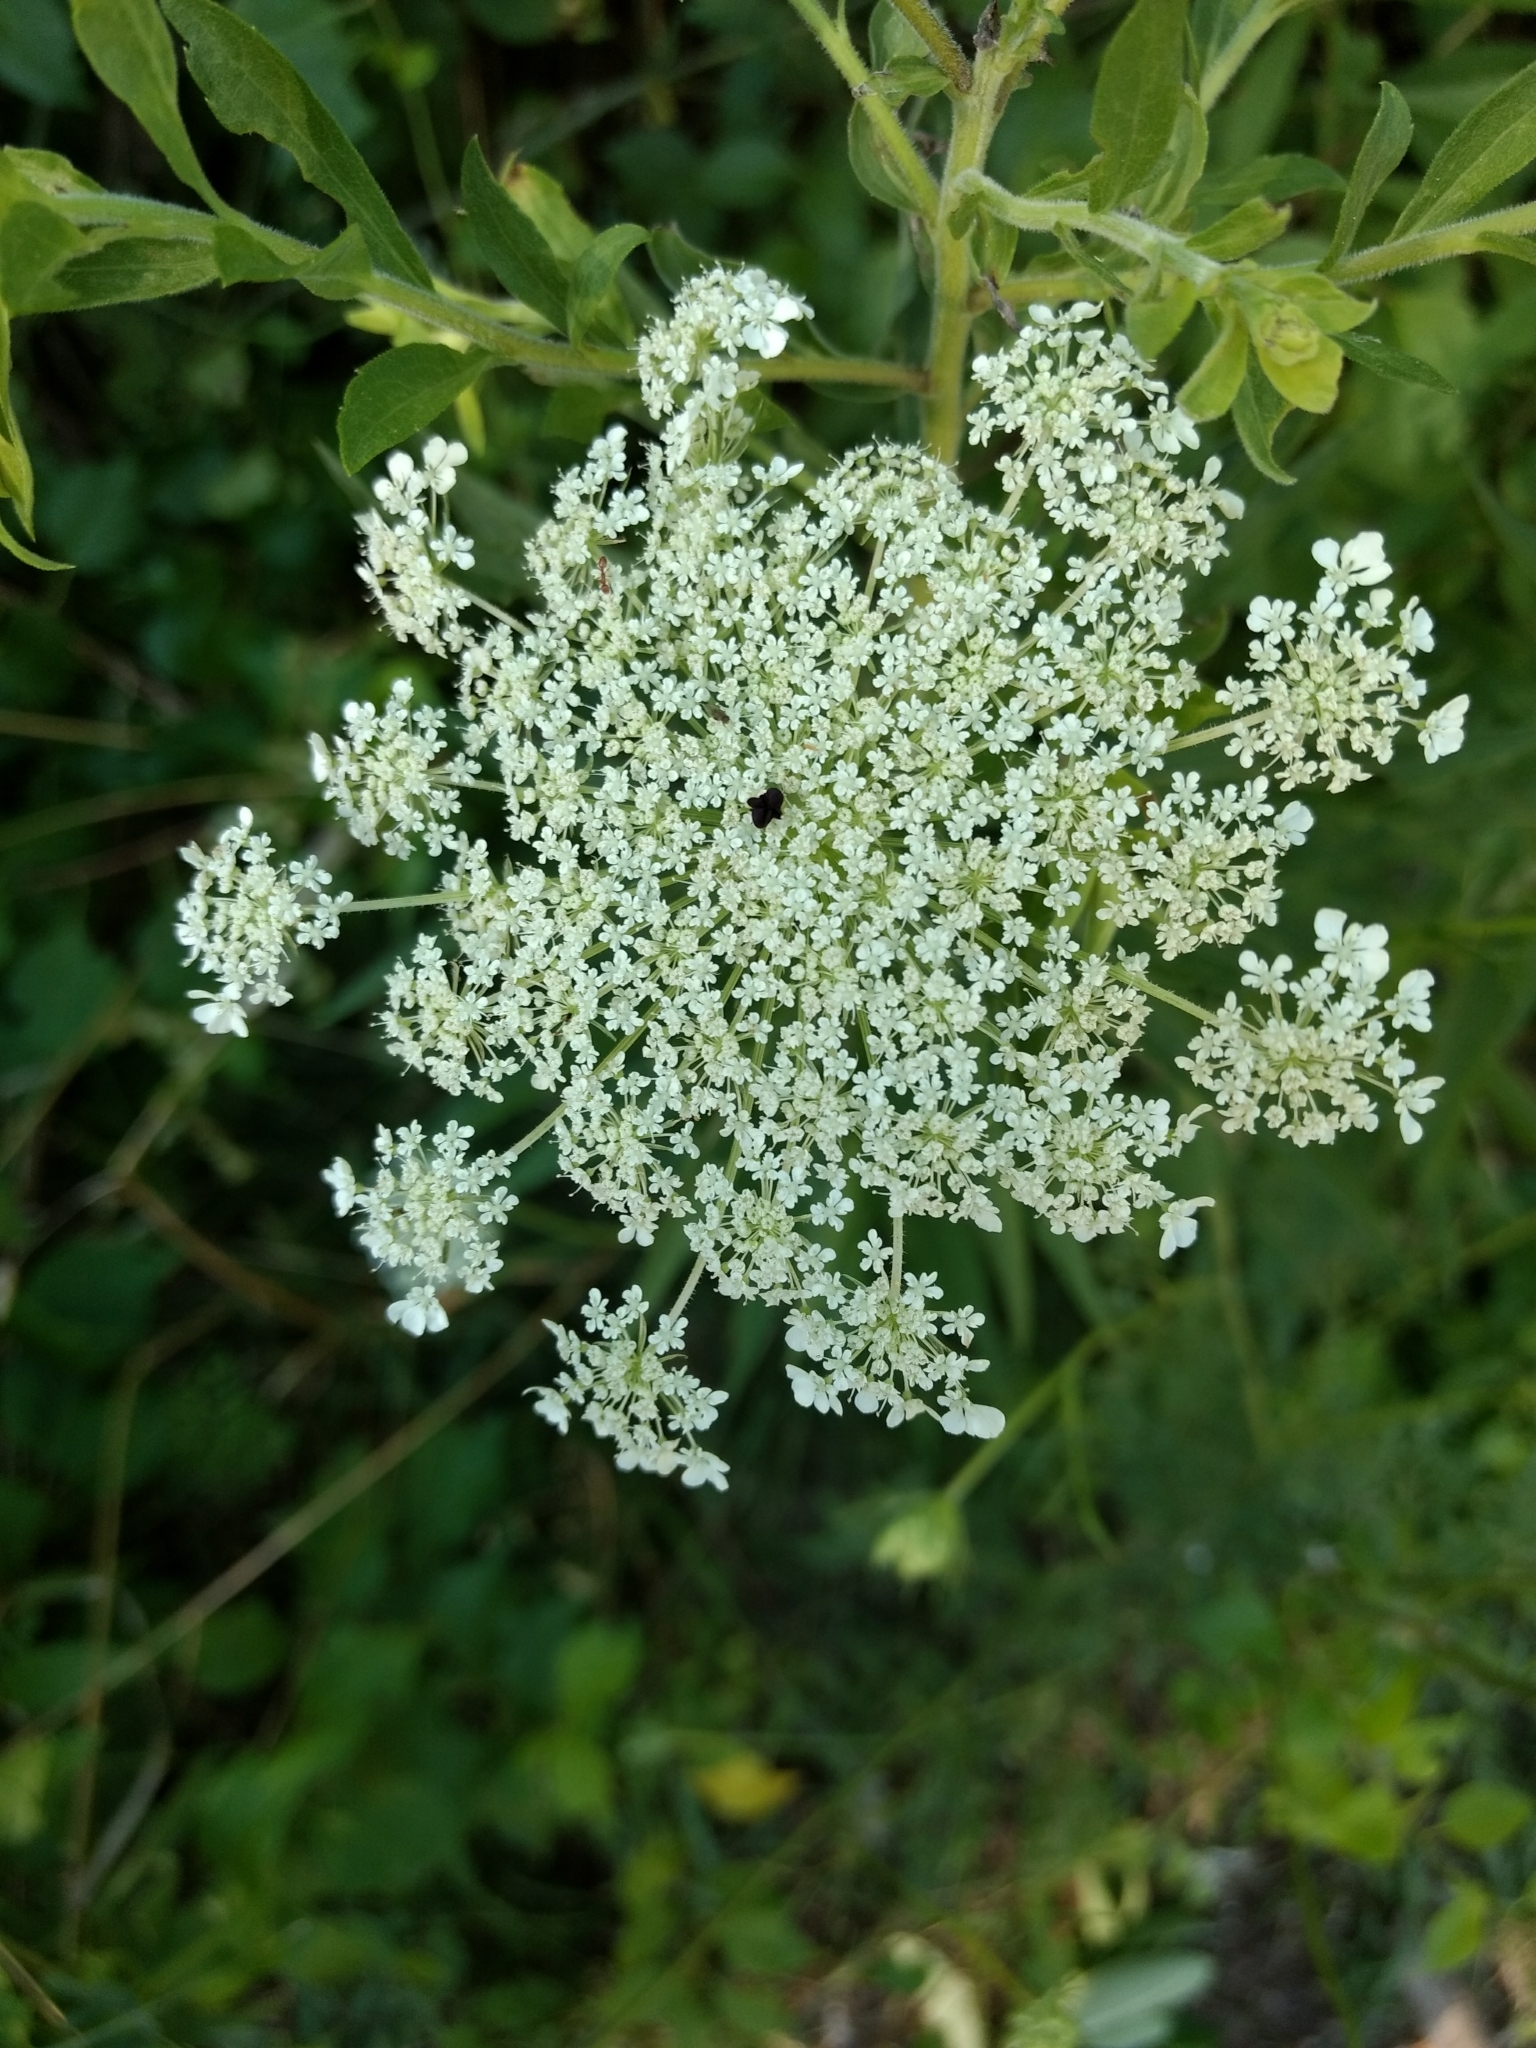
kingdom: Plantae
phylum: Tracheophyta
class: Magnoliopsida
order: Apiales
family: Apiaceae
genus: Daucus
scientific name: Daucus carota
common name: Wild carrot
